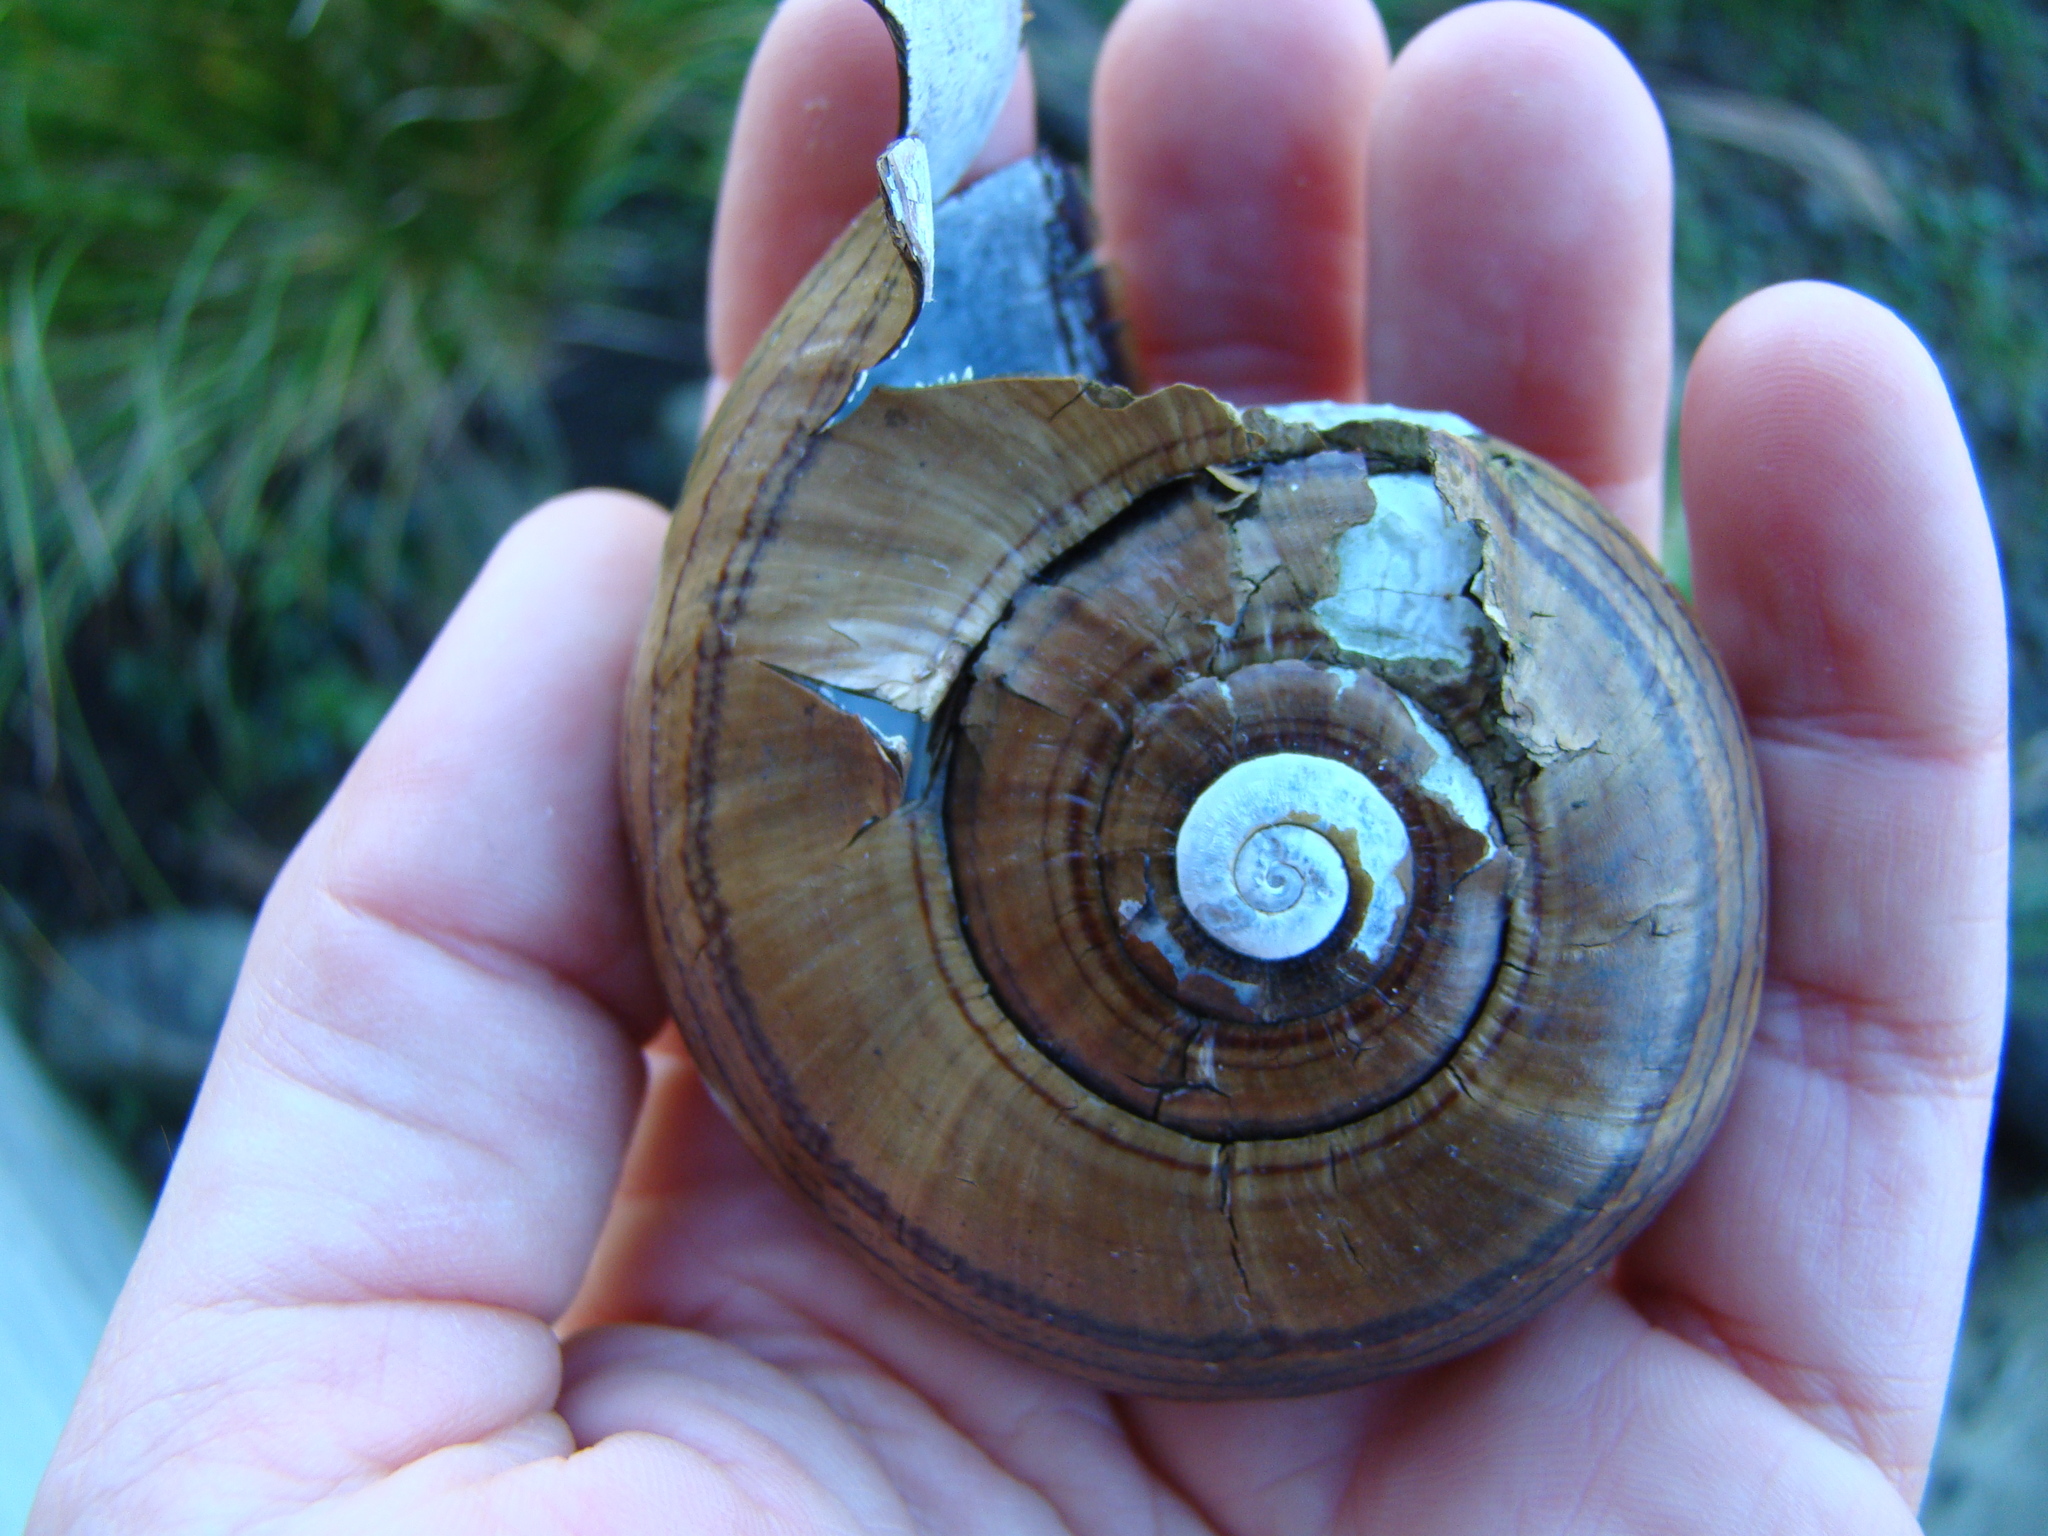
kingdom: Animalia
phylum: Mollusca
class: Gastropoda
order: Stylommatophora
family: Rhytididae
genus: Powelliphanta
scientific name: Powelliphanta hochstetteri
